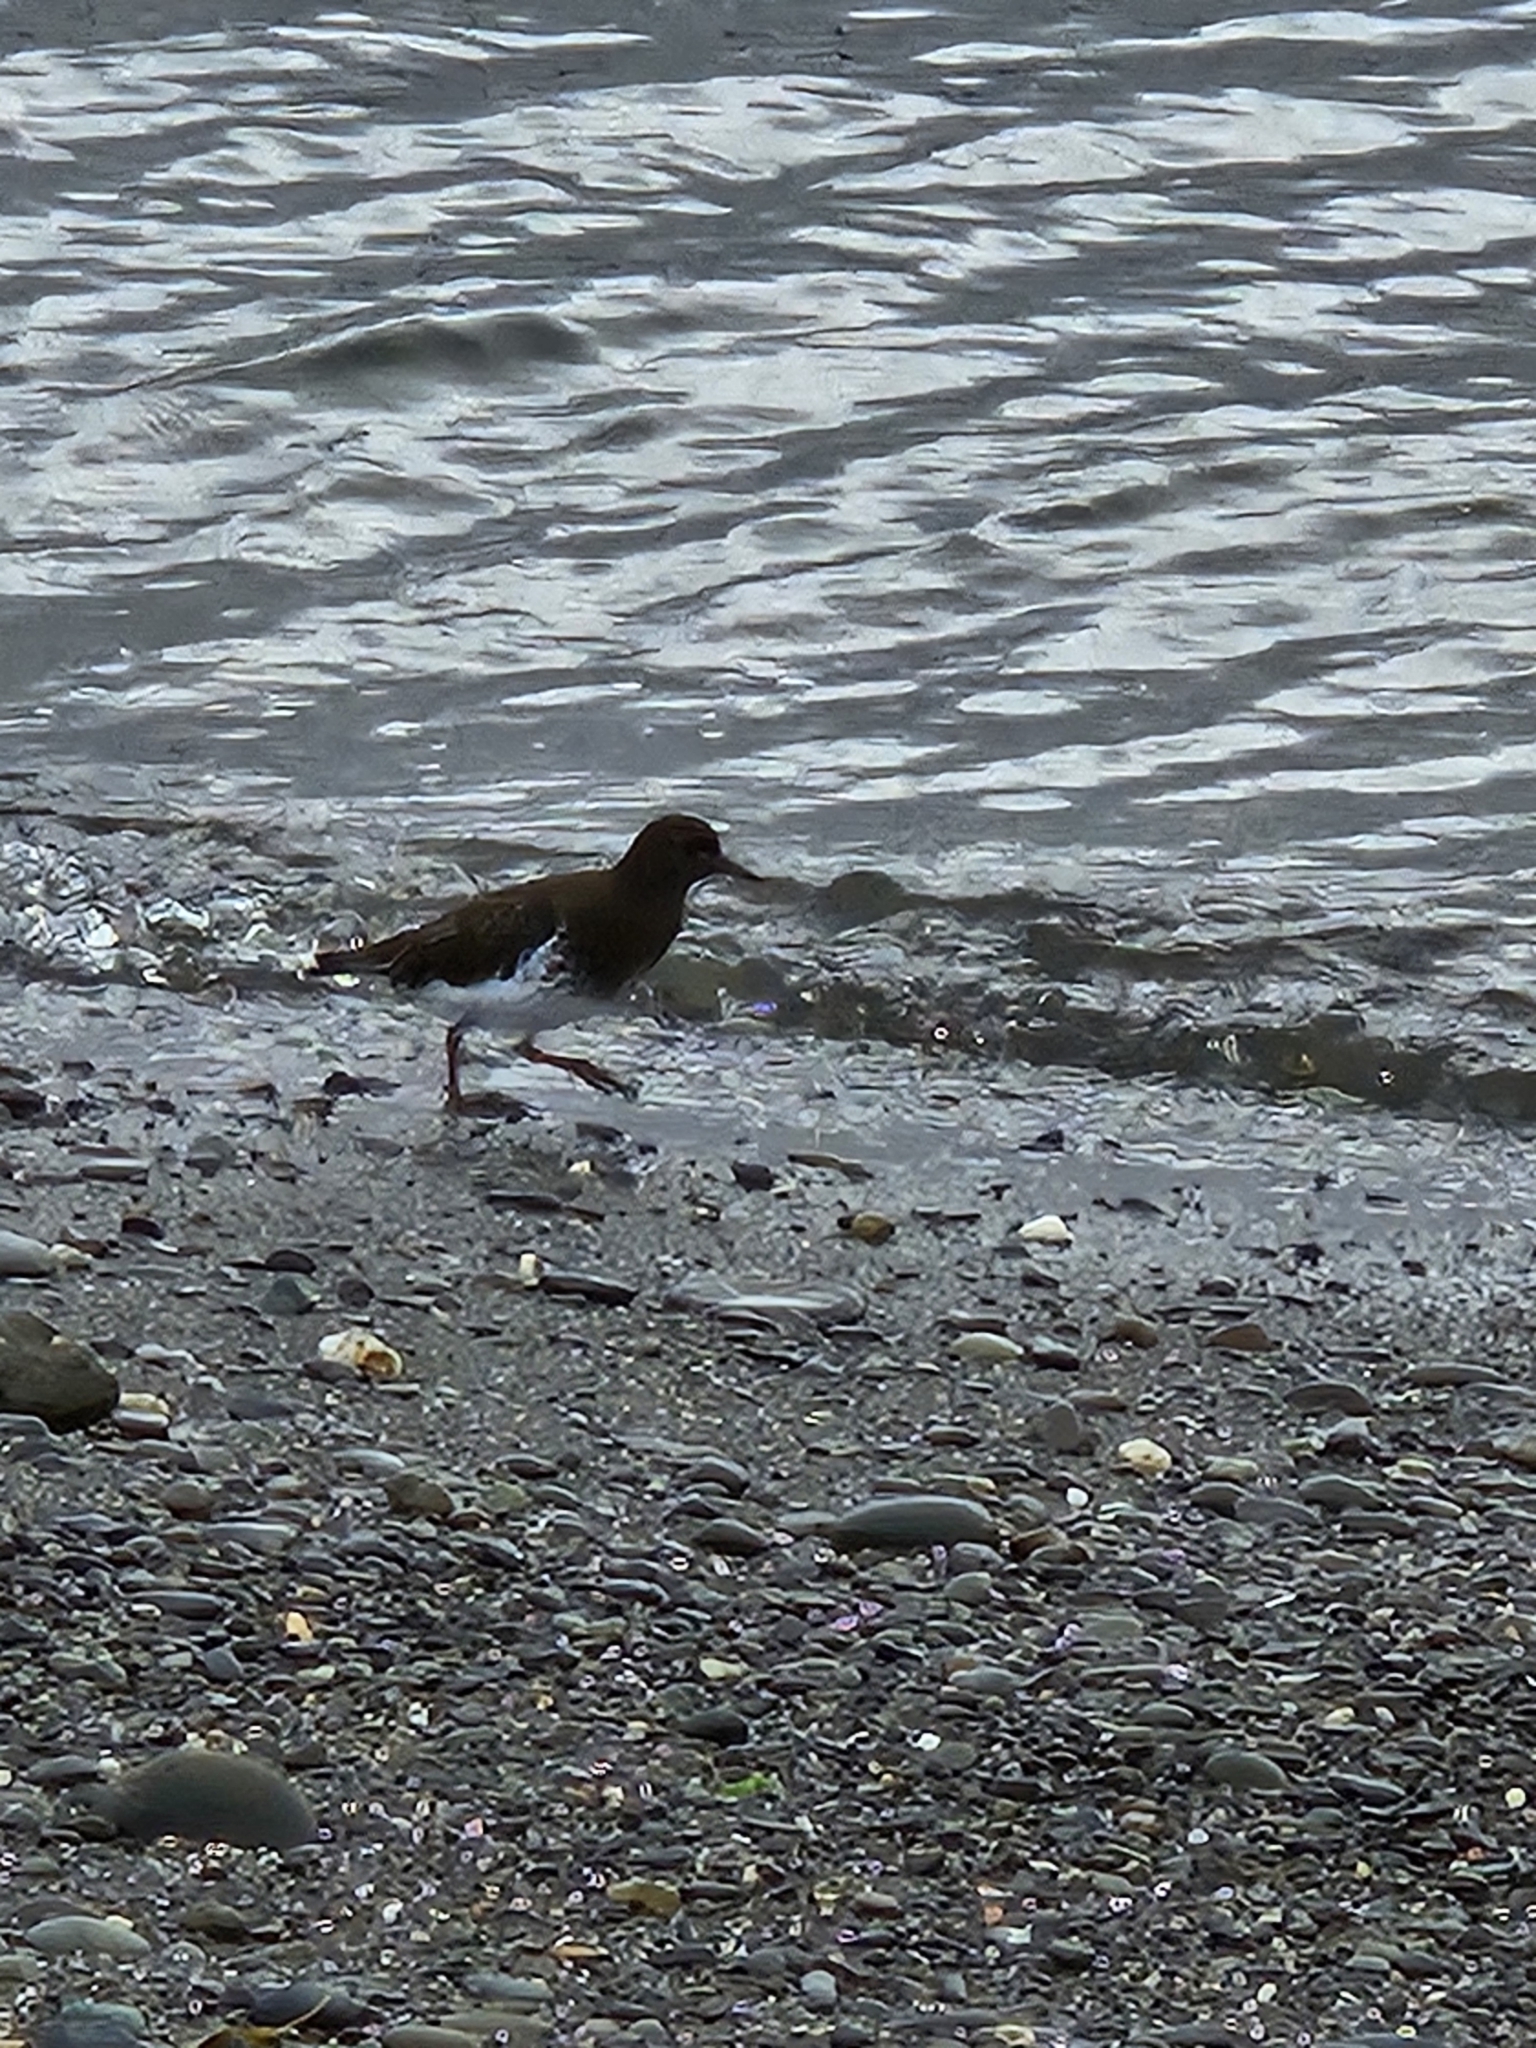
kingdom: Animalia
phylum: Chordata
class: Aves
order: Charadriiformes
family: Scolopacidae
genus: Arenaria
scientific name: Arenaria melanocephala
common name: Black turnstone
